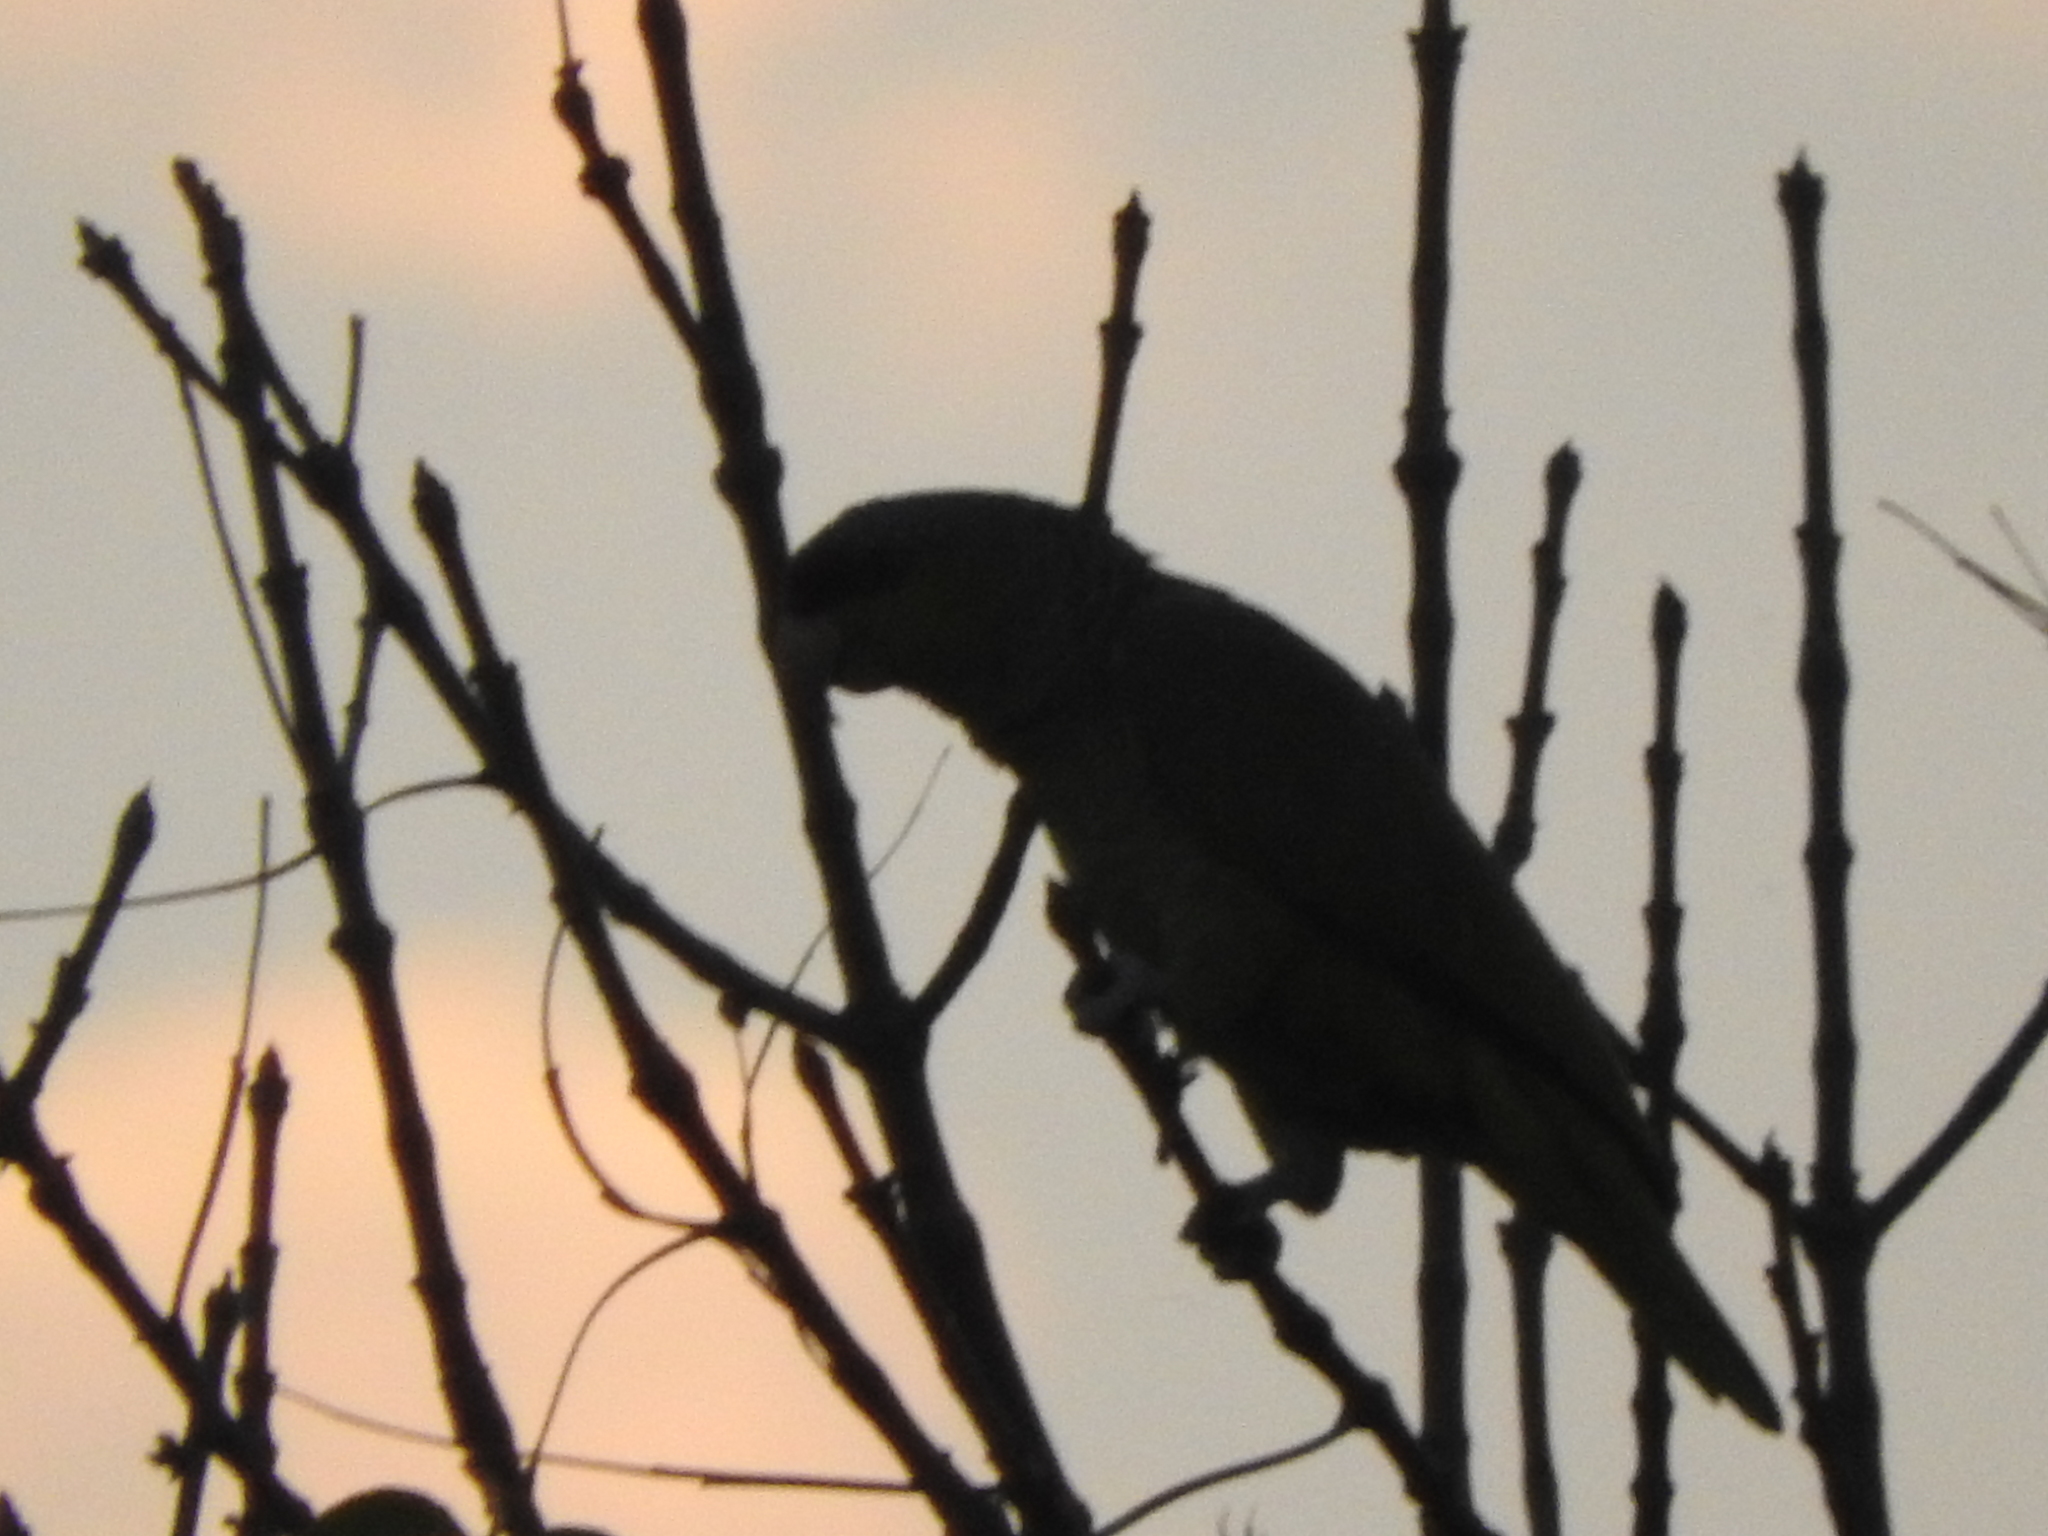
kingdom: Animalia
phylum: Chordata
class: Aves
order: Psittaciformes
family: Psittacidae
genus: Amazona
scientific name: Amazona finschi
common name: Lilac-crowned amazon
